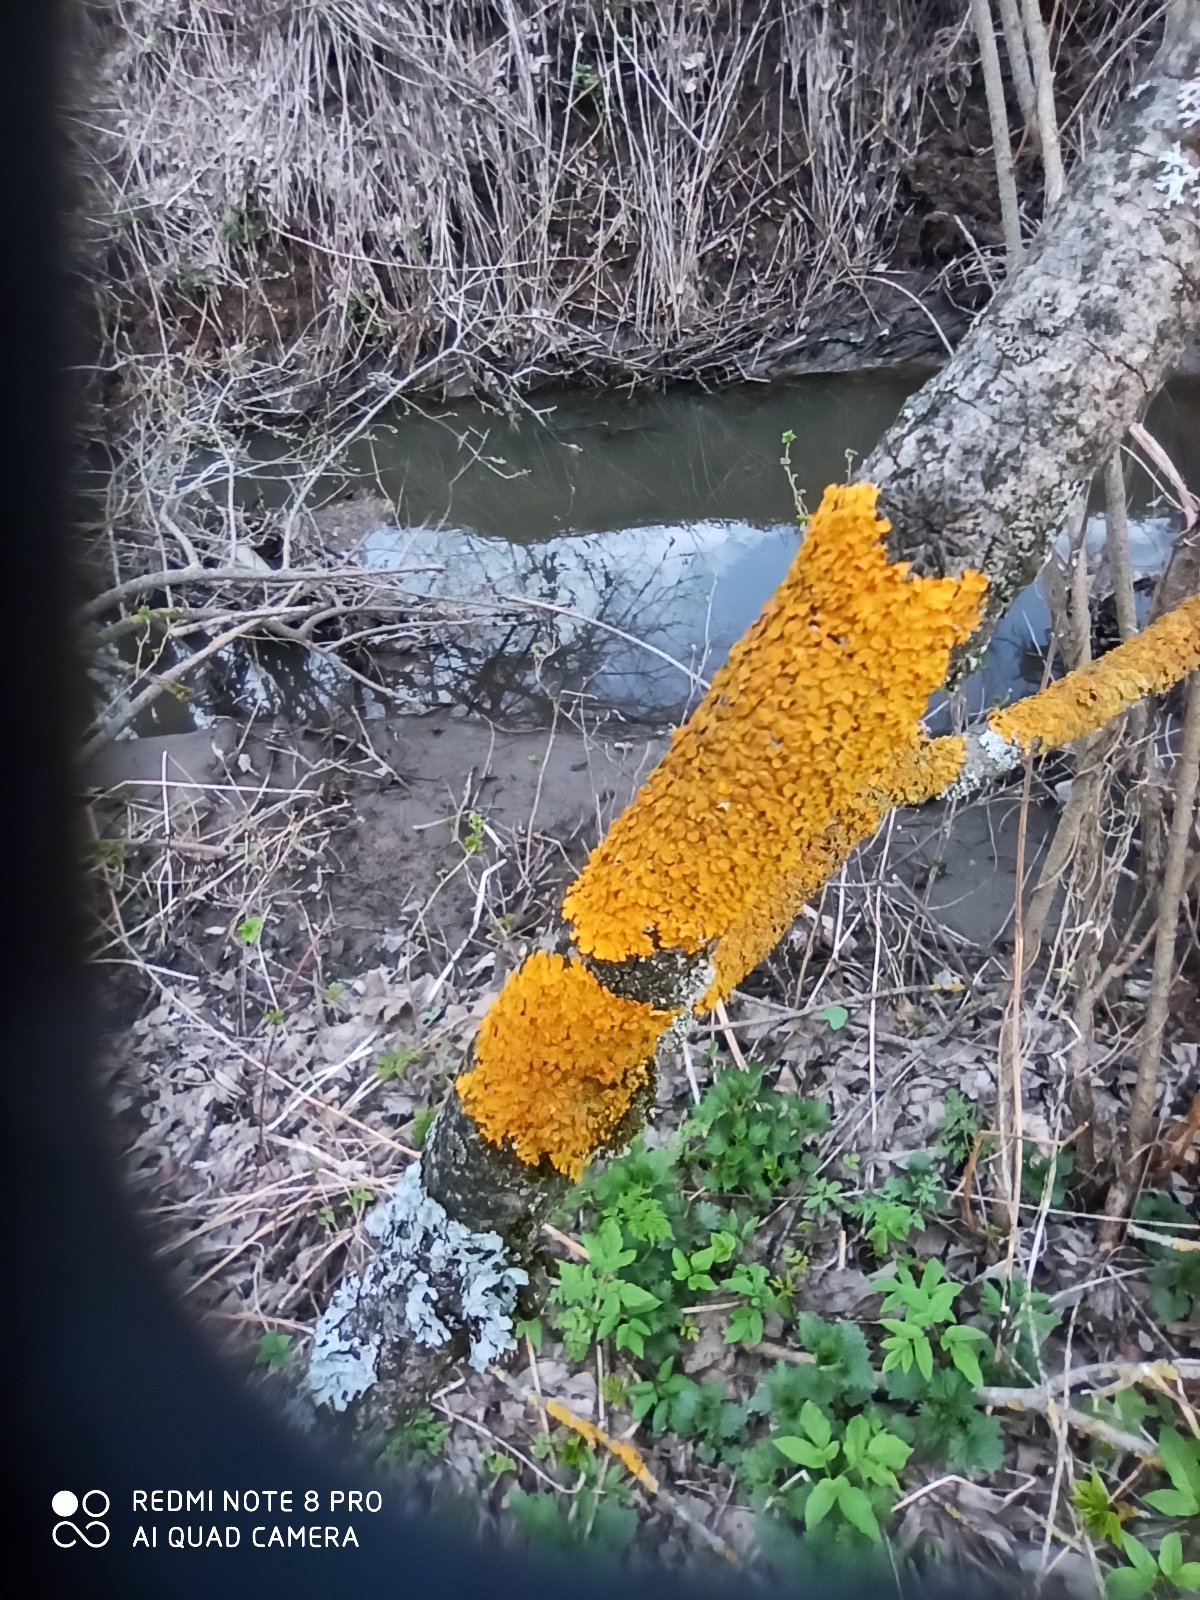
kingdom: Fungi
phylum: Ascomycota
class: Lecanoromycetes
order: Teloschistales
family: Teloschistaceae
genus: Xanthoria
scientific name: Xanthoria parietina
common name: Common orange lichen
